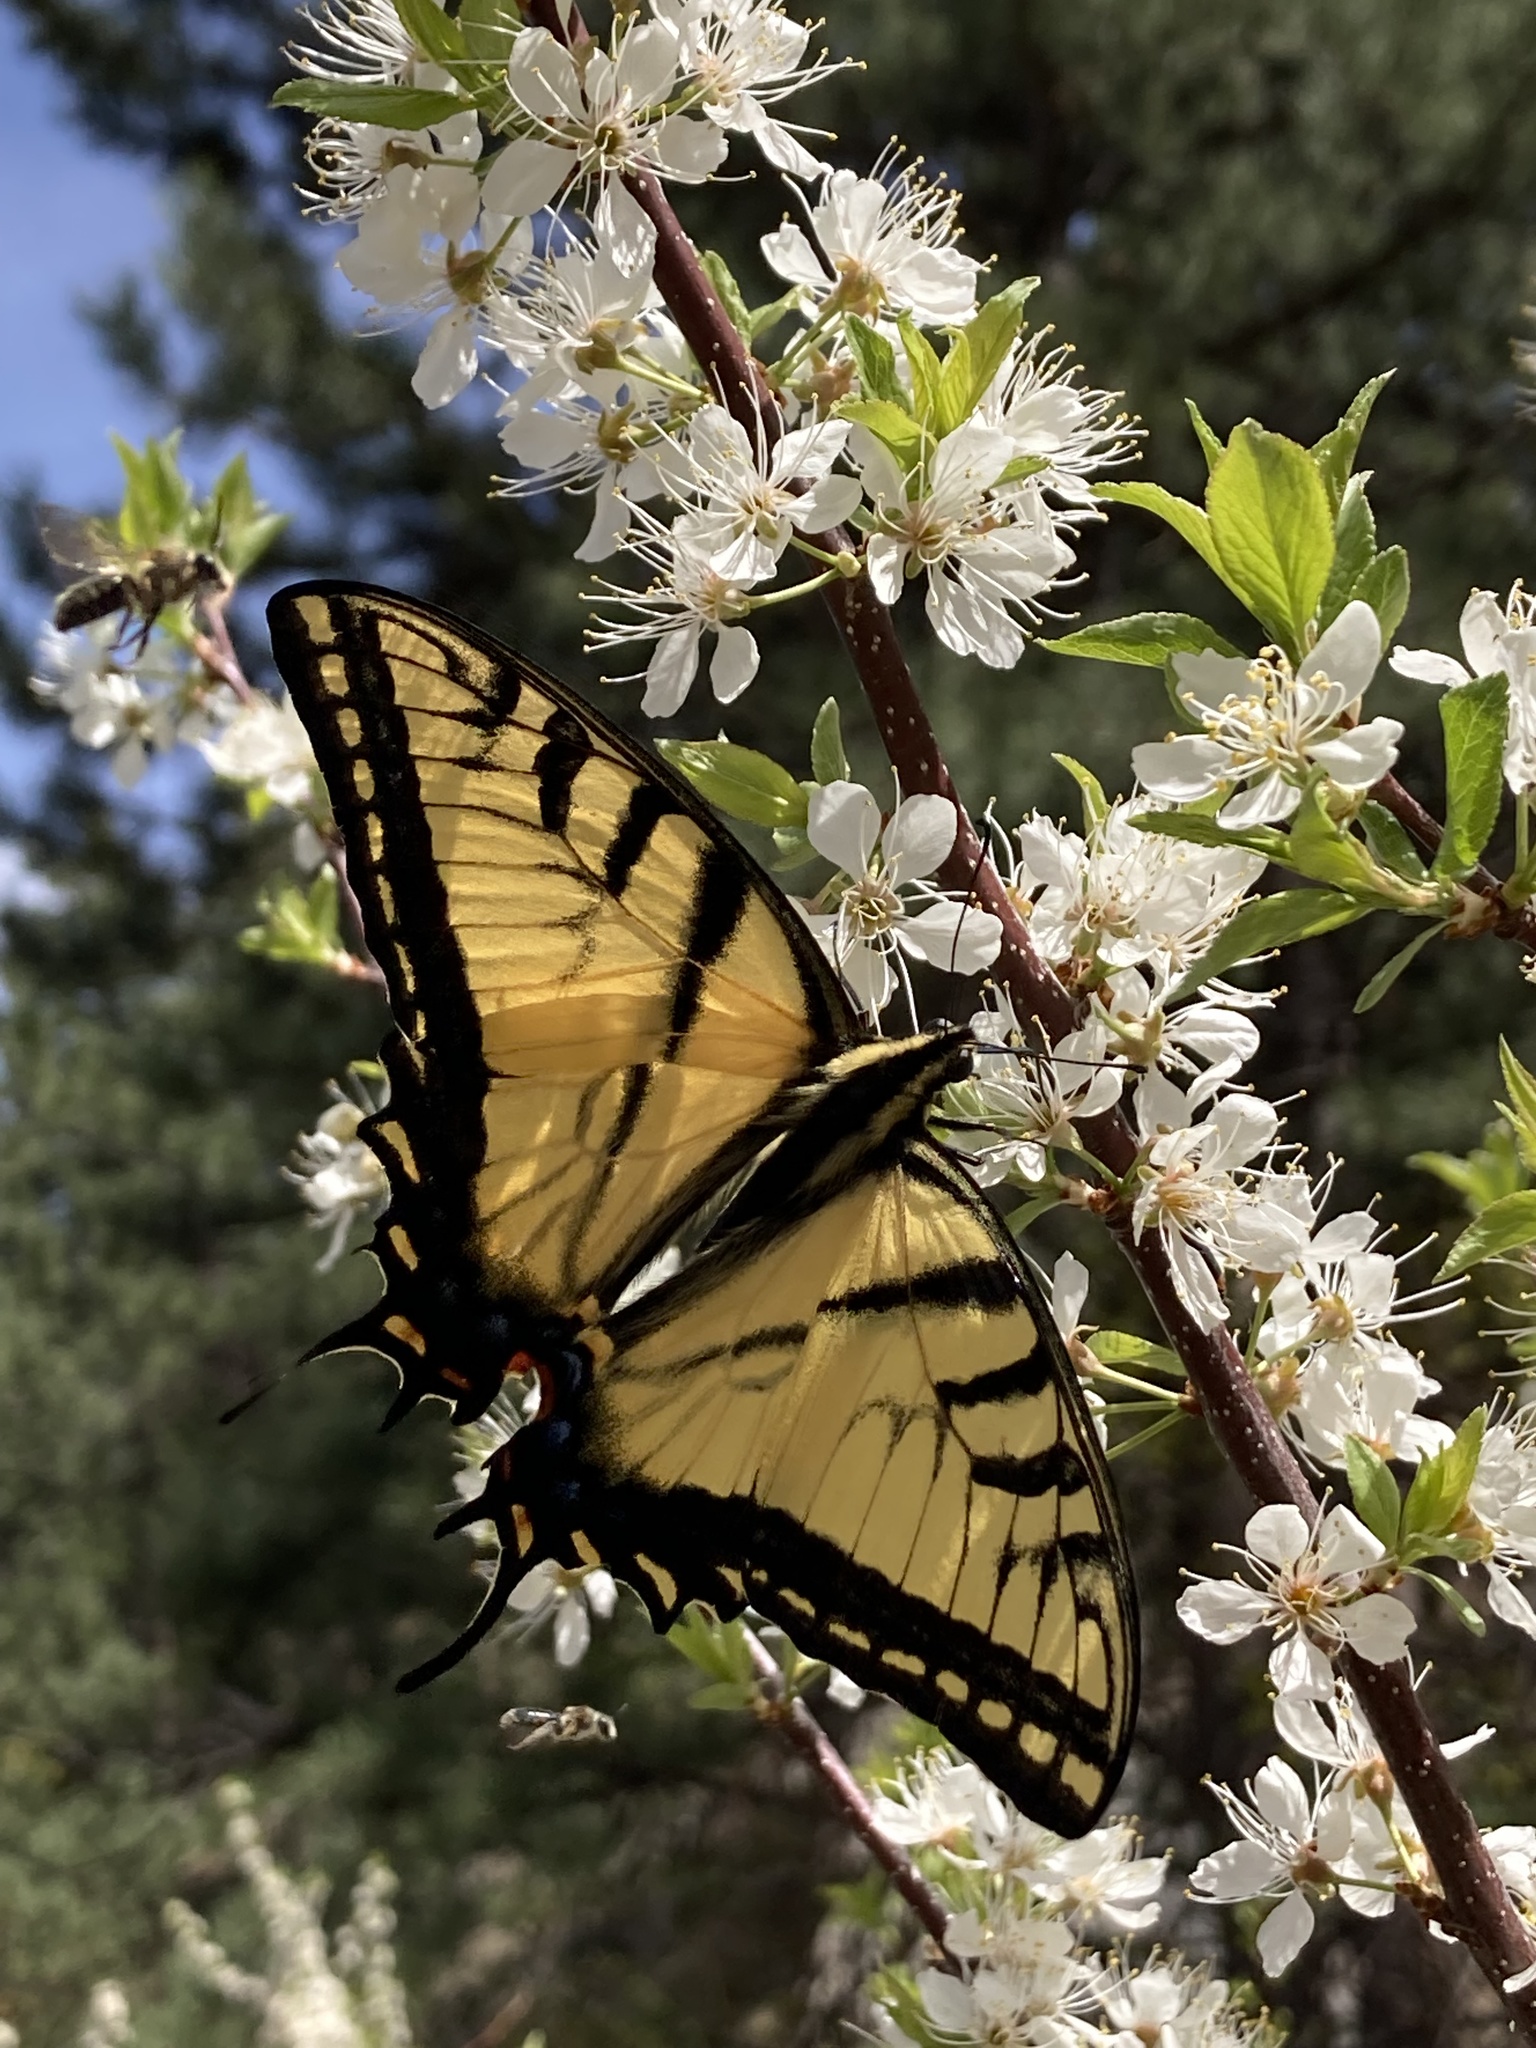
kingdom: Animalia
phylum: Arthropoda
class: Insecta
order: Lepidoptera
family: Papilionidae
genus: Papilio
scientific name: Papilio multicaudata
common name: Two-tailed tiger swallowtail
